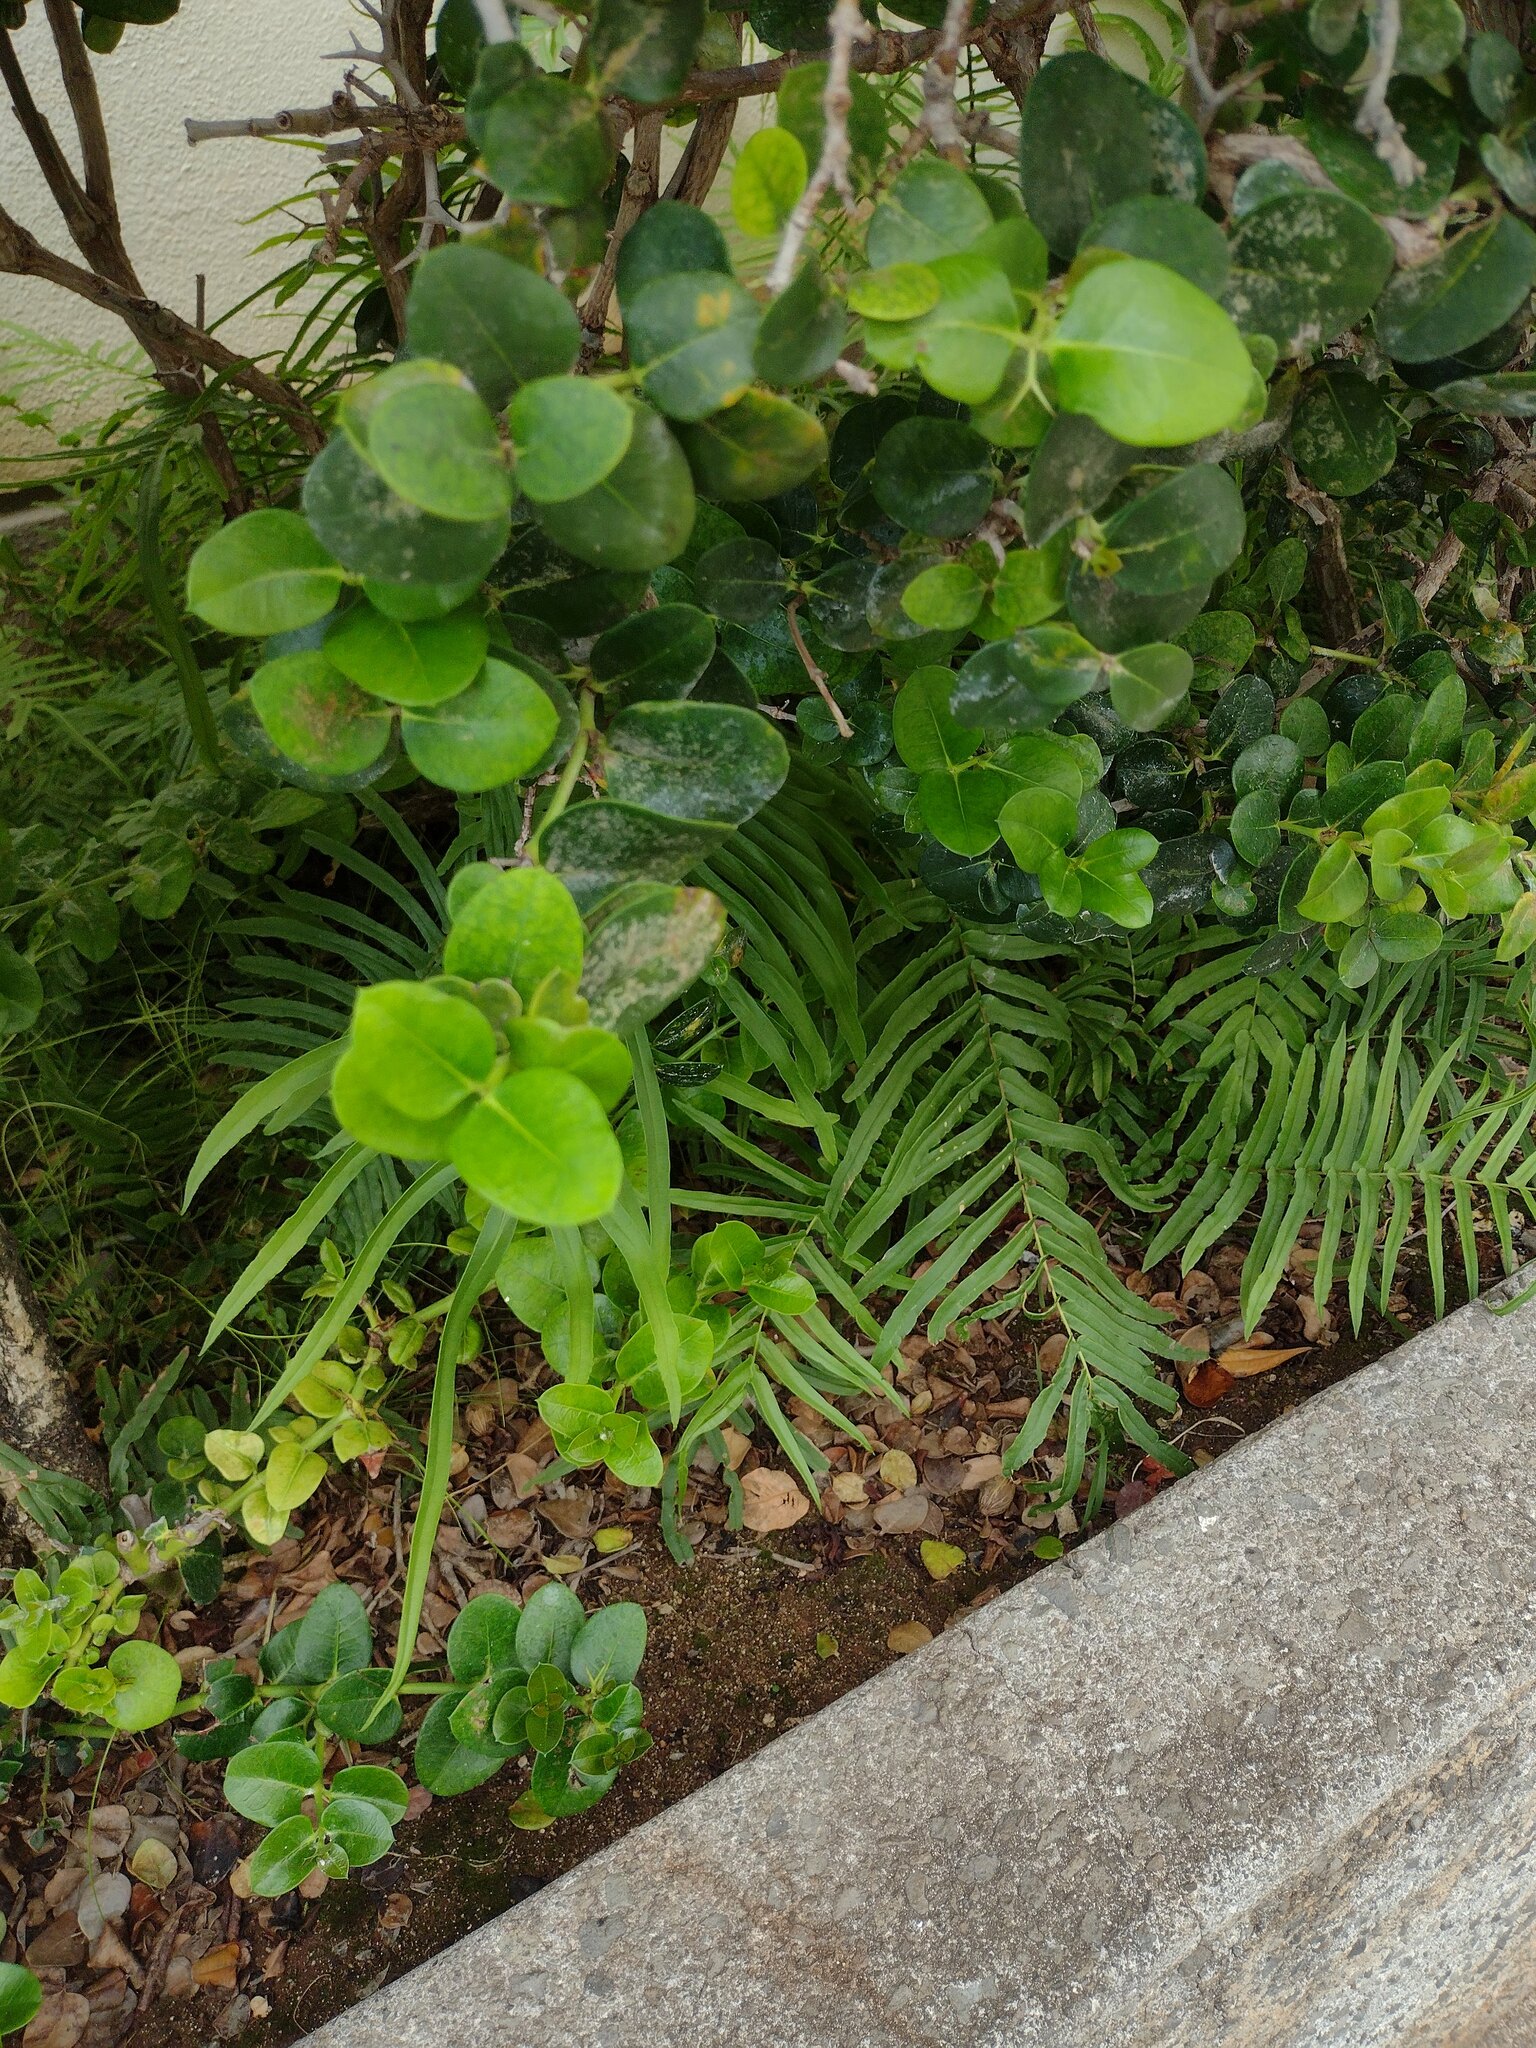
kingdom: Plantae
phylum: Tracheophyta
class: Polypodiopsida
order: Polypodiales
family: Pteridaceae
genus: Pteris
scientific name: Pteris vittata
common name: Ladder brake
